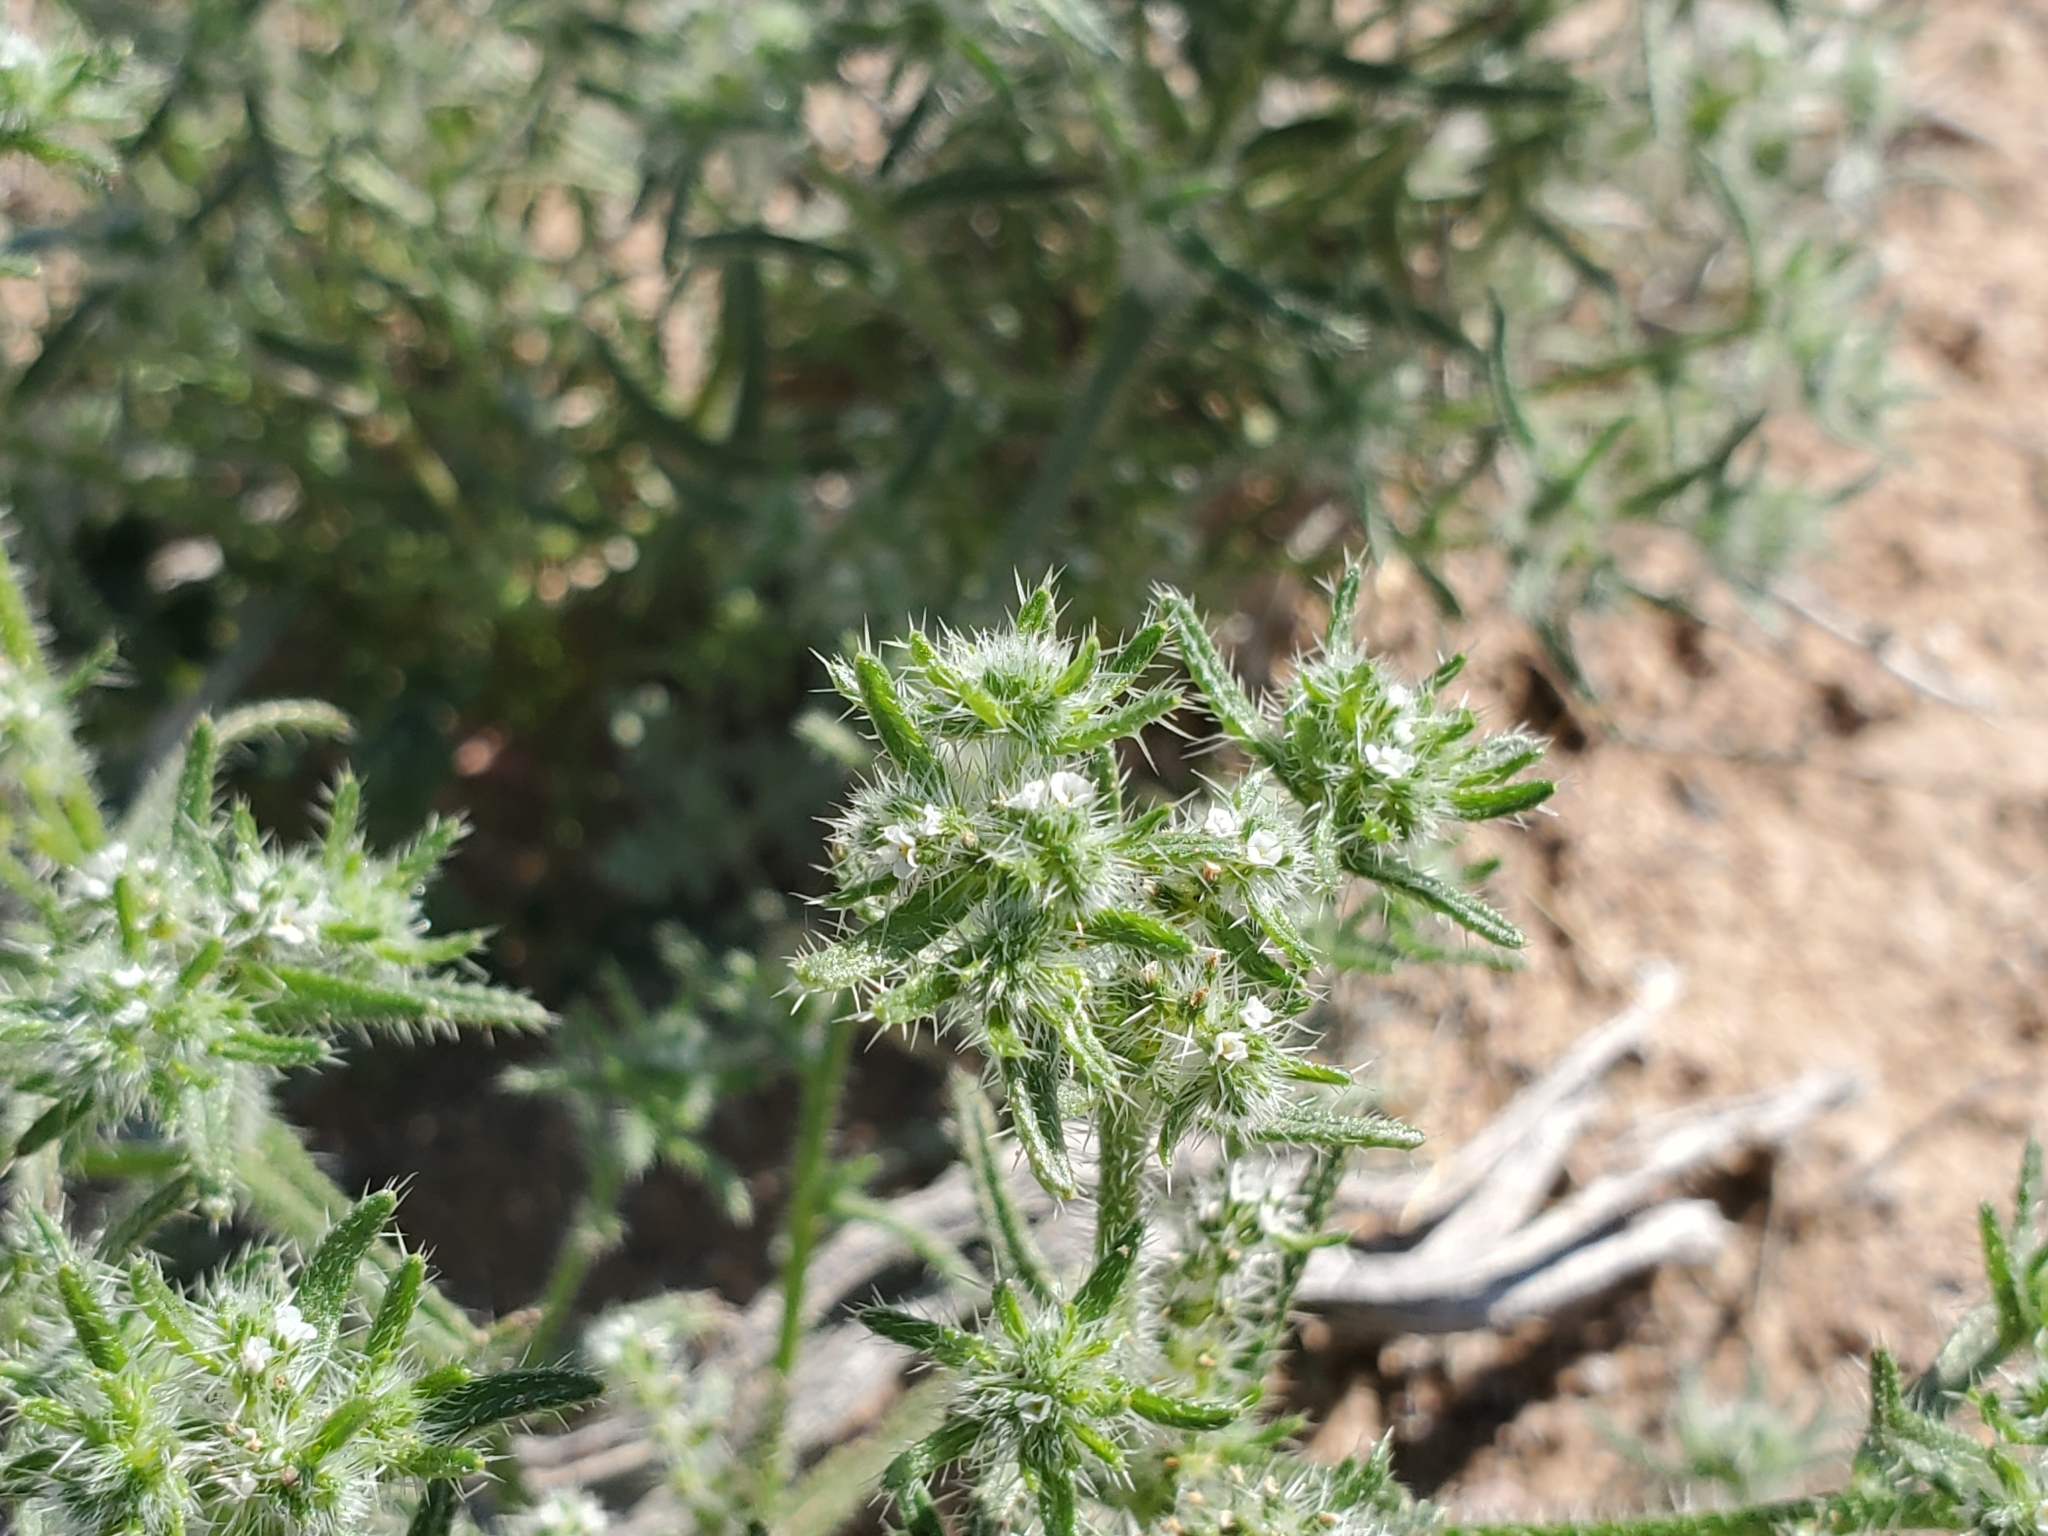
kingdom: Plantae
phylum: Tracheophyta
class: Magnoliopsida
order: Boraginales
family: Boraginaceae
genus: Cryptantha
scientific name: Cryptantha maritima
